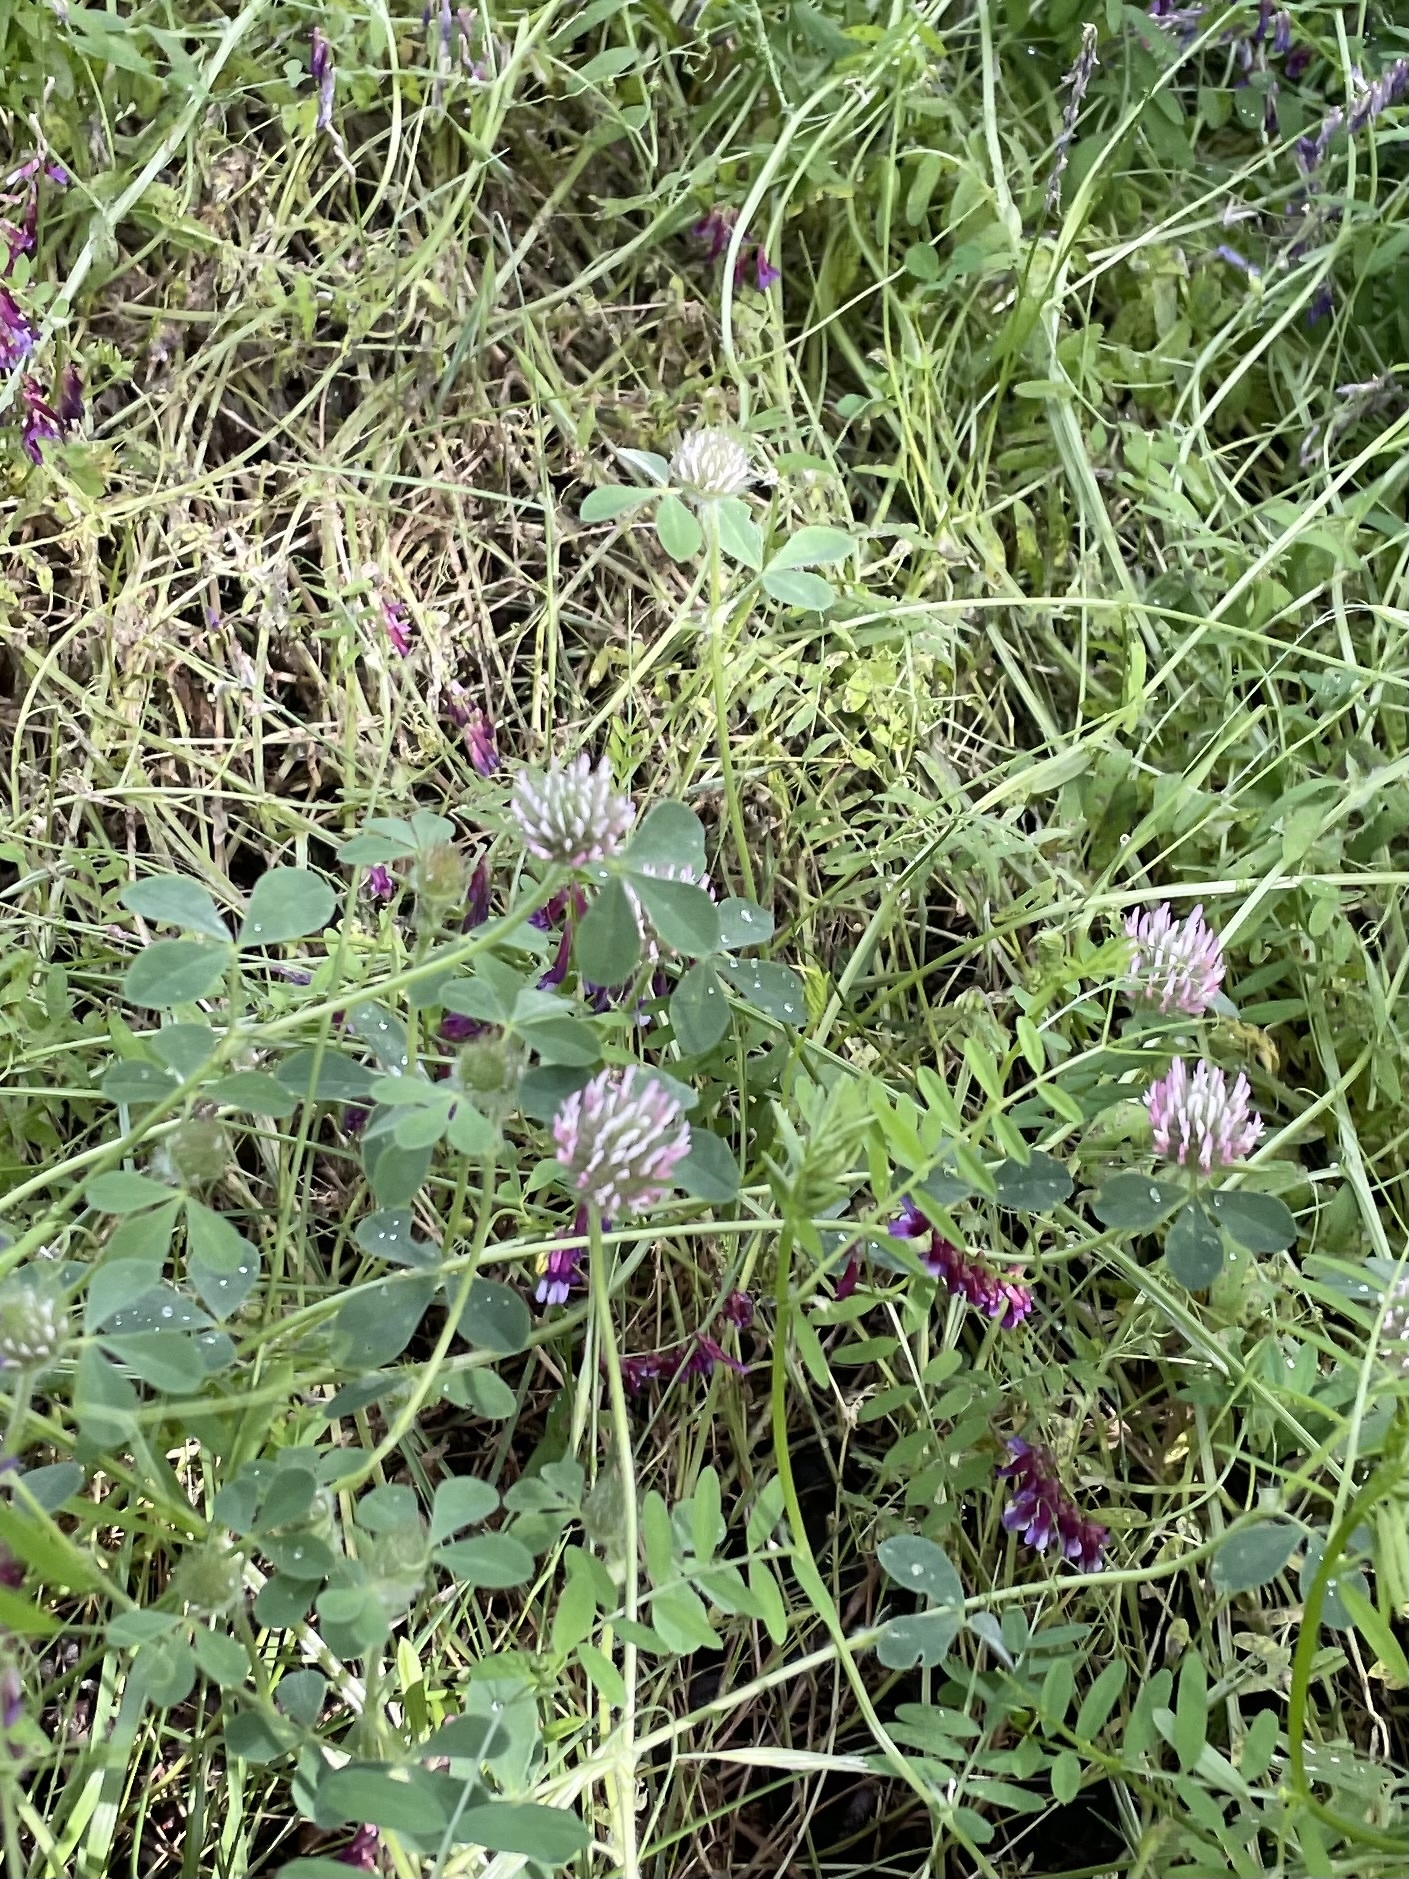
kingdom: Plantae
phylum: Tracheophyta
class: Magnoliopsida
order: Fabales
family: Fabaceae
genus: Trifolium
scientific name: Trifolium hirtum
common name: Rose clover
